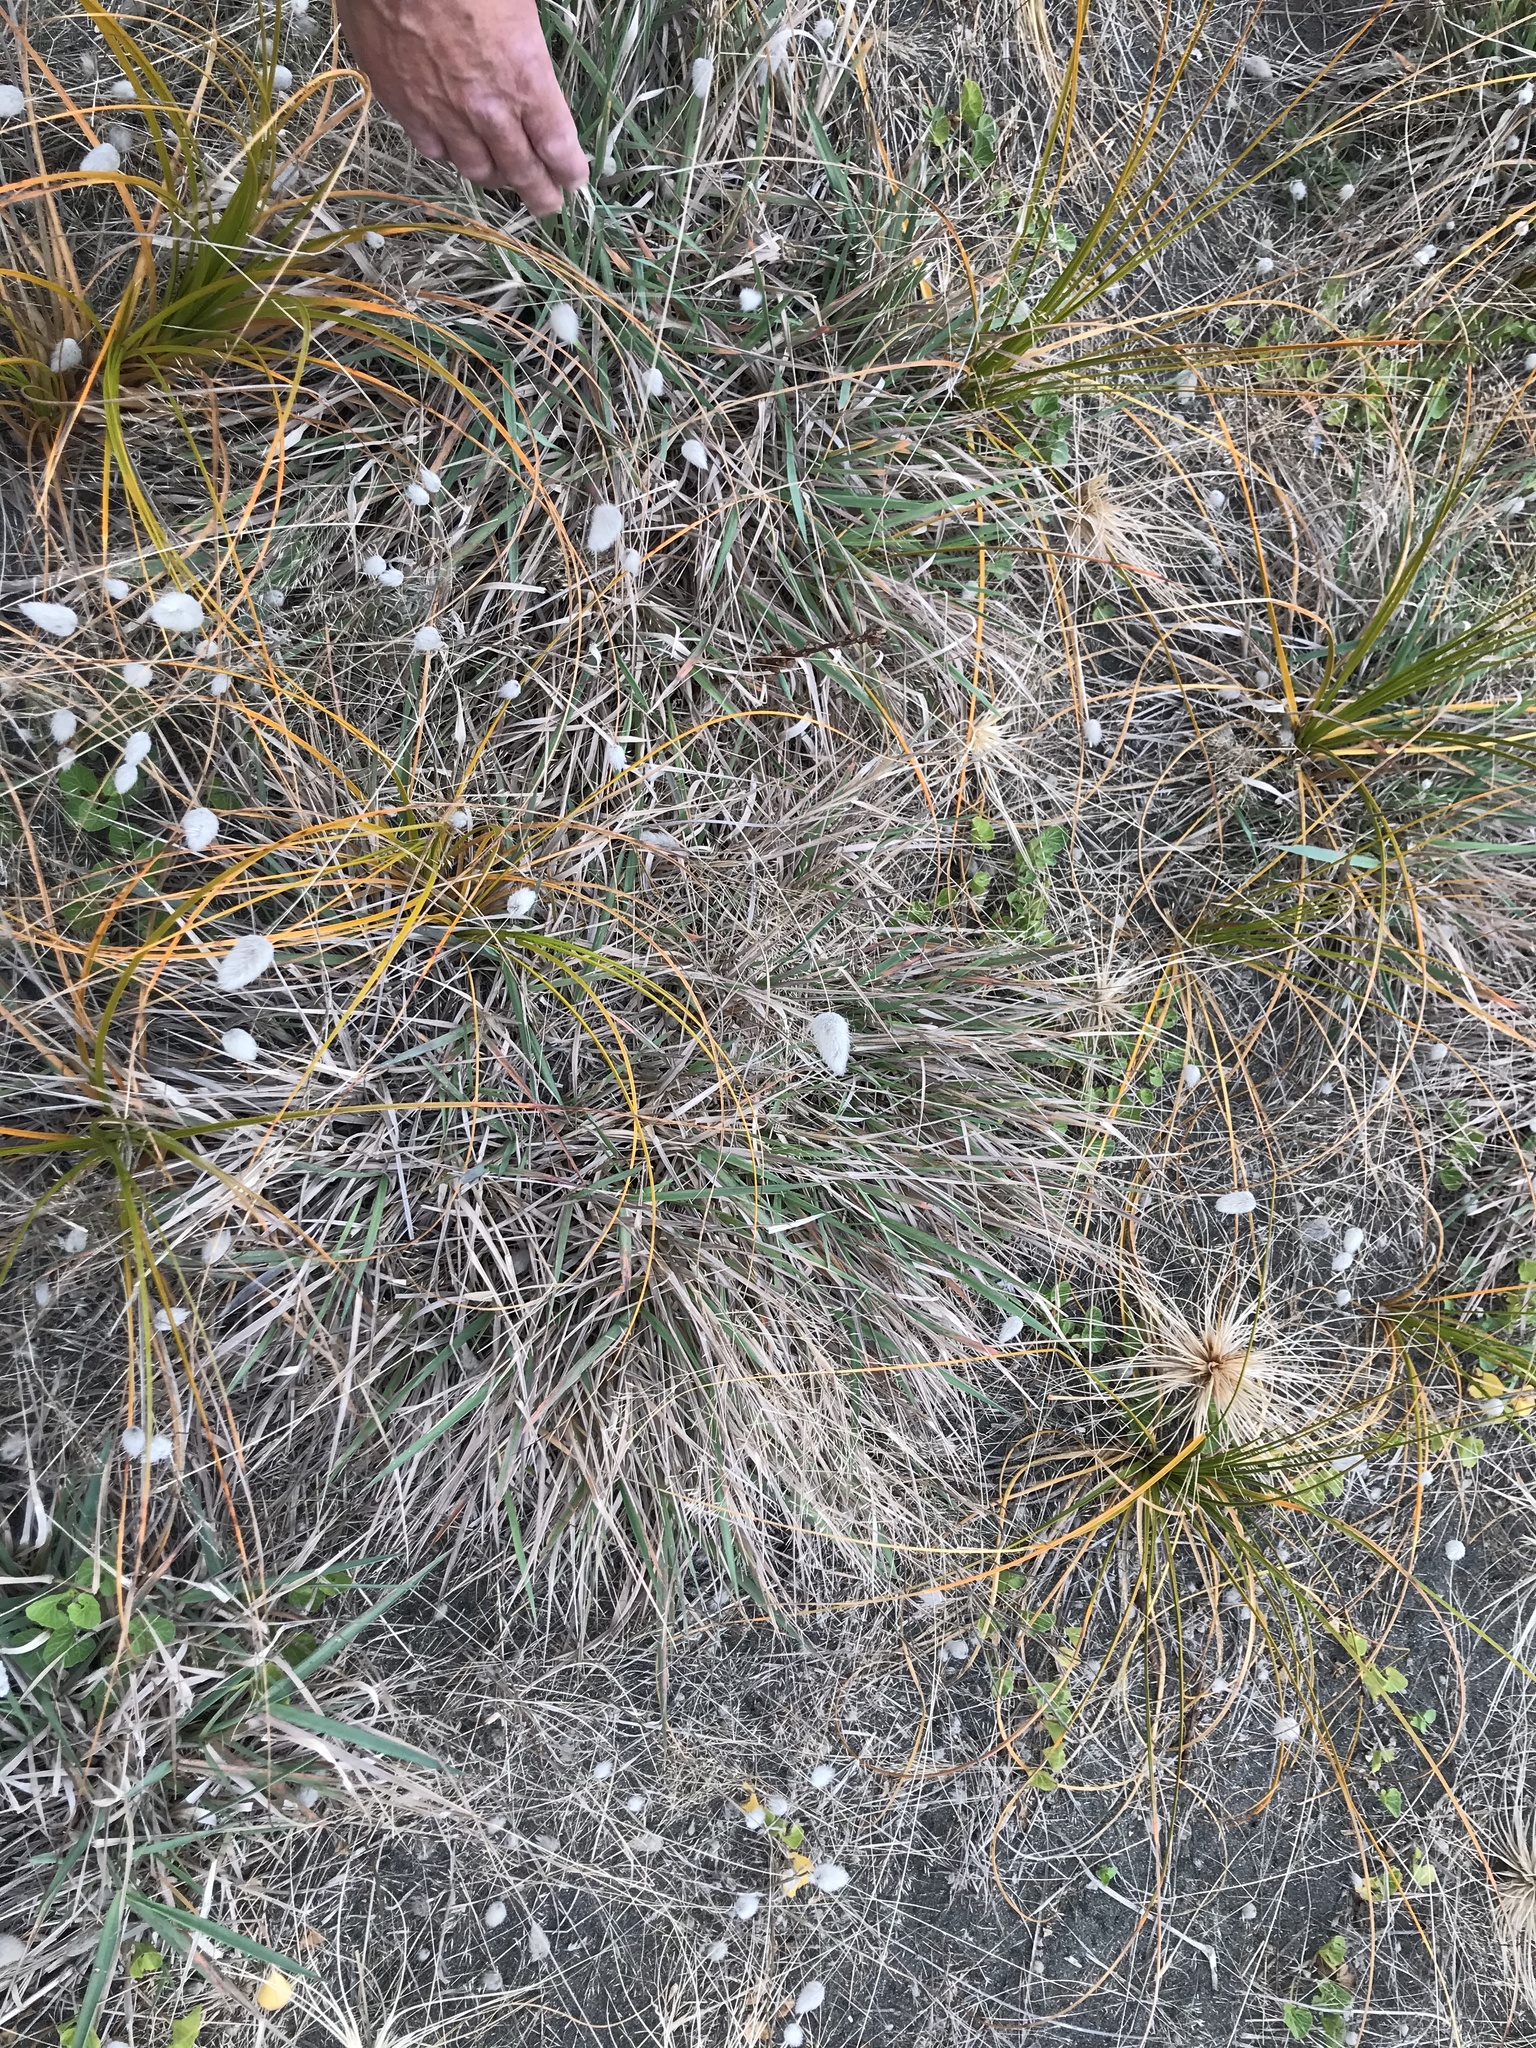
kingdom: Plantae
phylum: Tracheophyta
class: Liliopsida
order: Poales
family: Poaceae
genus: Lachnagrostis
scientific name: Lachnagrostis billardierei
